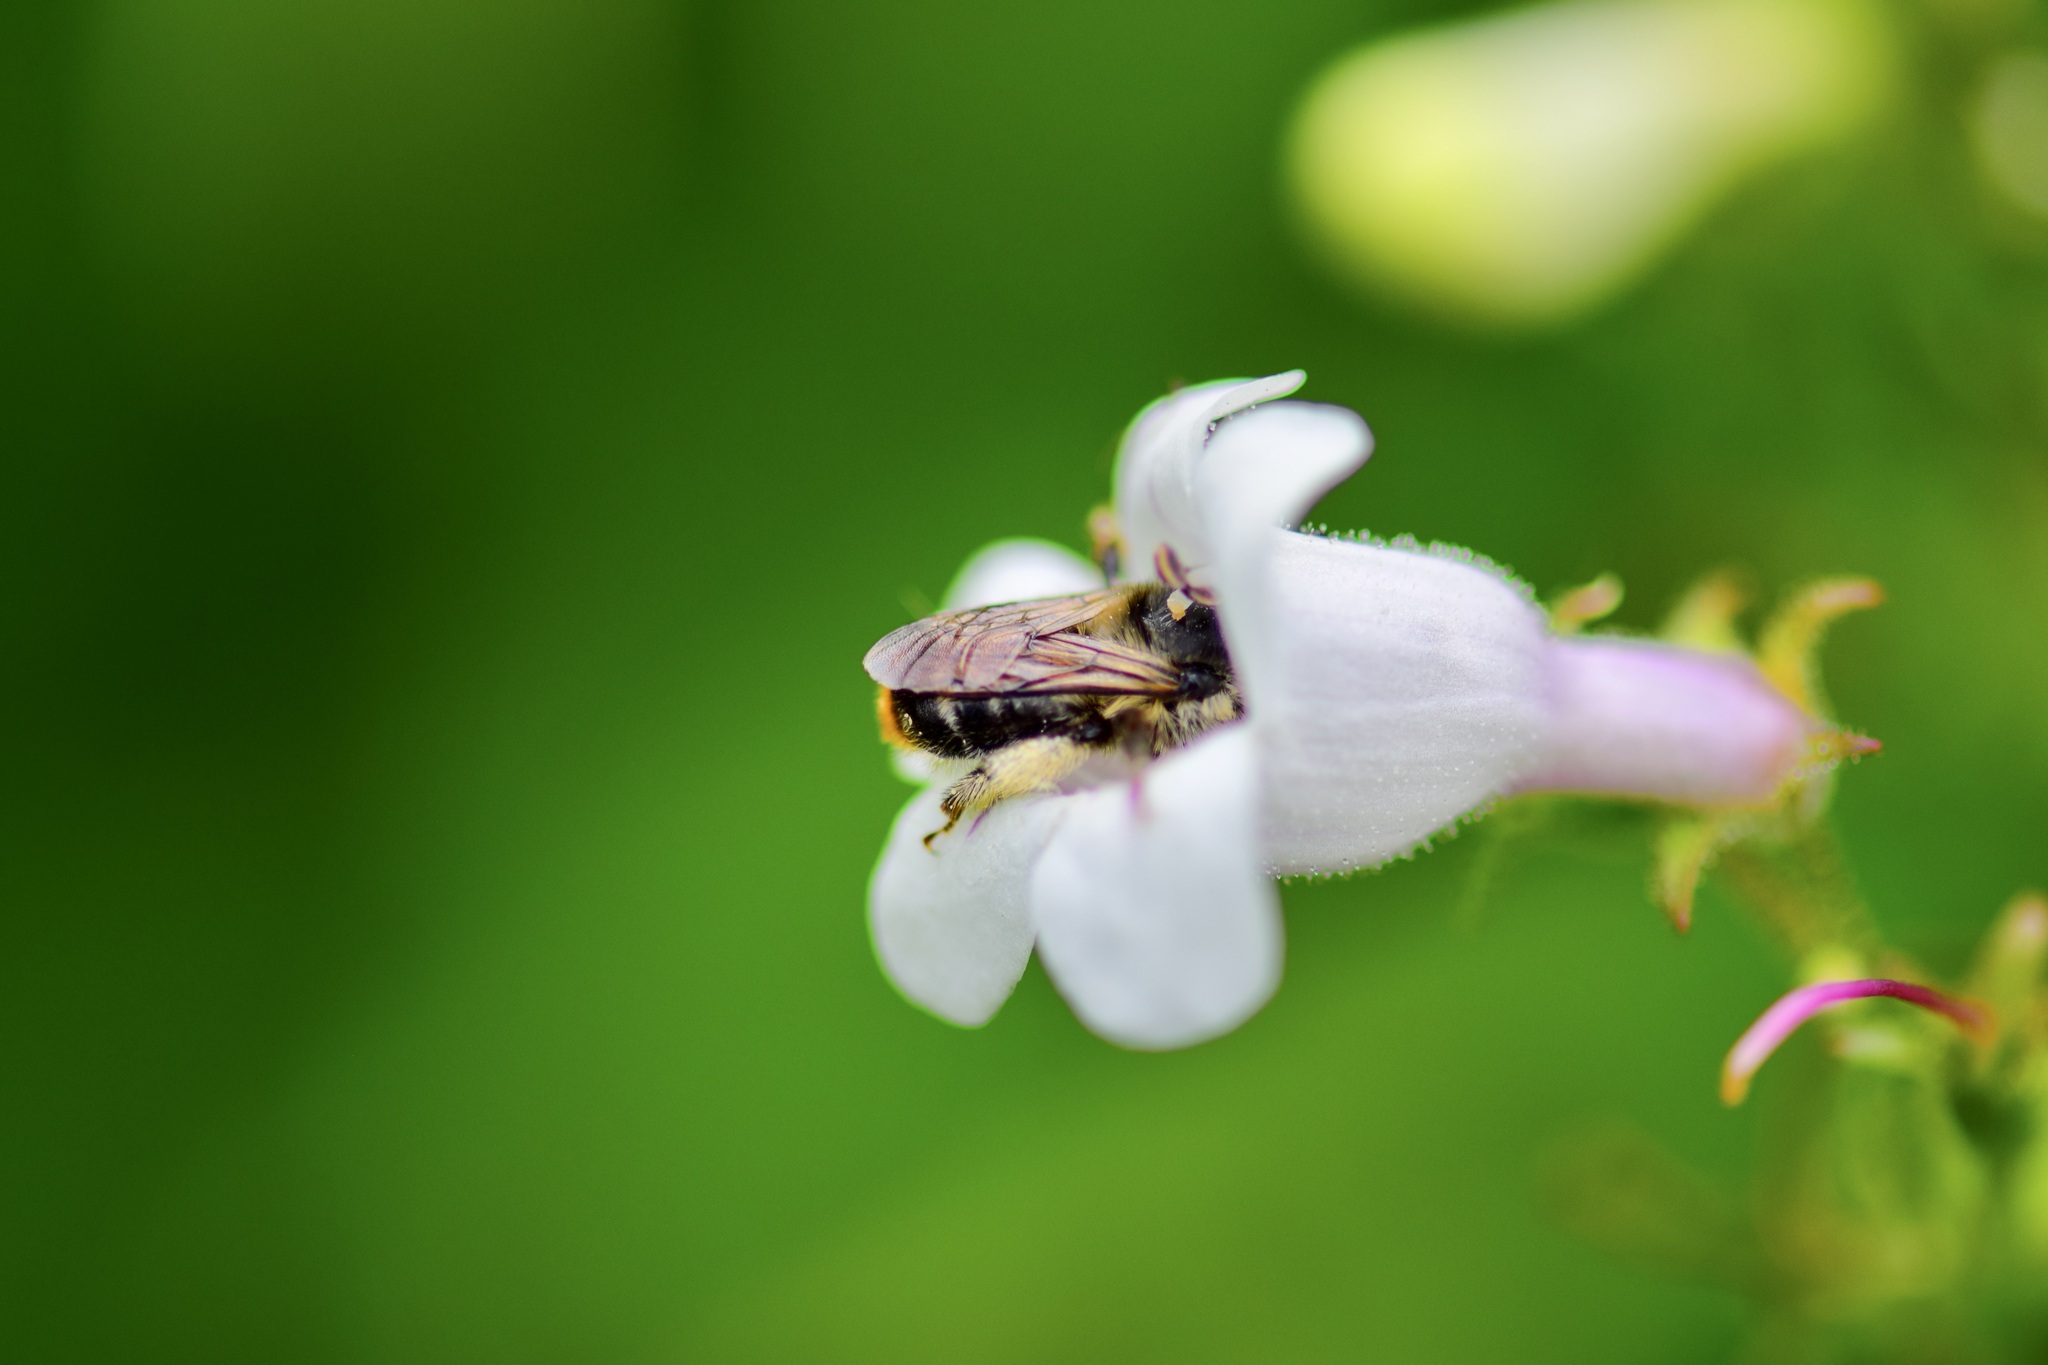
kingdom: Animalia
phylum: Arthropoda
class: Insecta
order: Hymenoptera
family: Apidae
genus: Anthophora
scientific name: Anthophora terminalis
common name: Orange-tipped wood-digger bee
